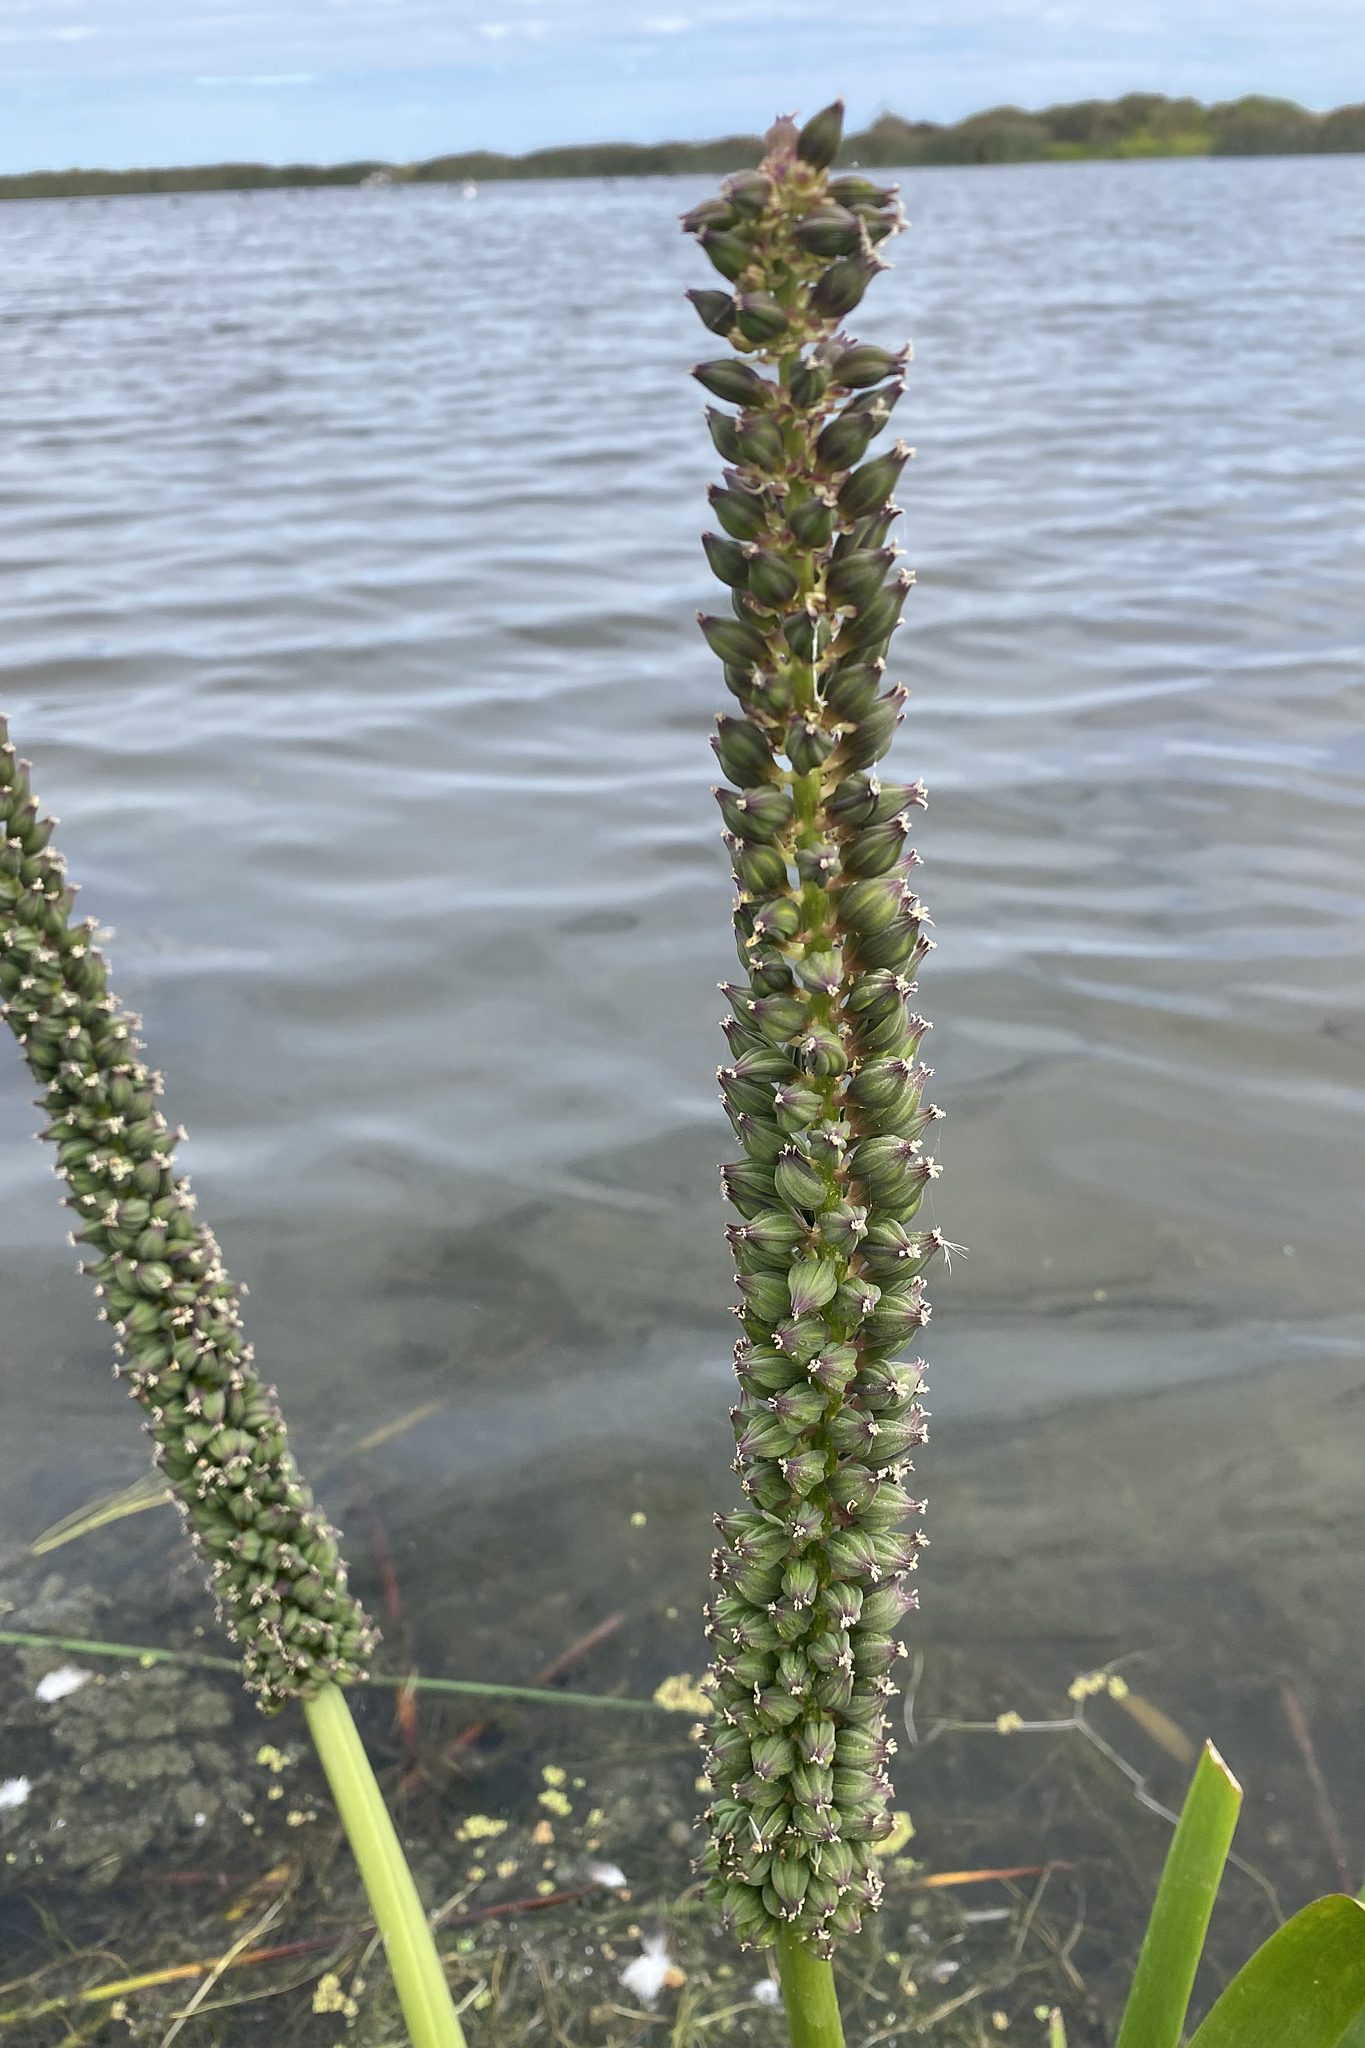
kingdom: Plantae
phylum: Tracheophyta
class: Liliopsida
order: Alismatales
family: Juncaginaceae
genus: Cycnogeton
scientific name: Cycnogeton procerum
